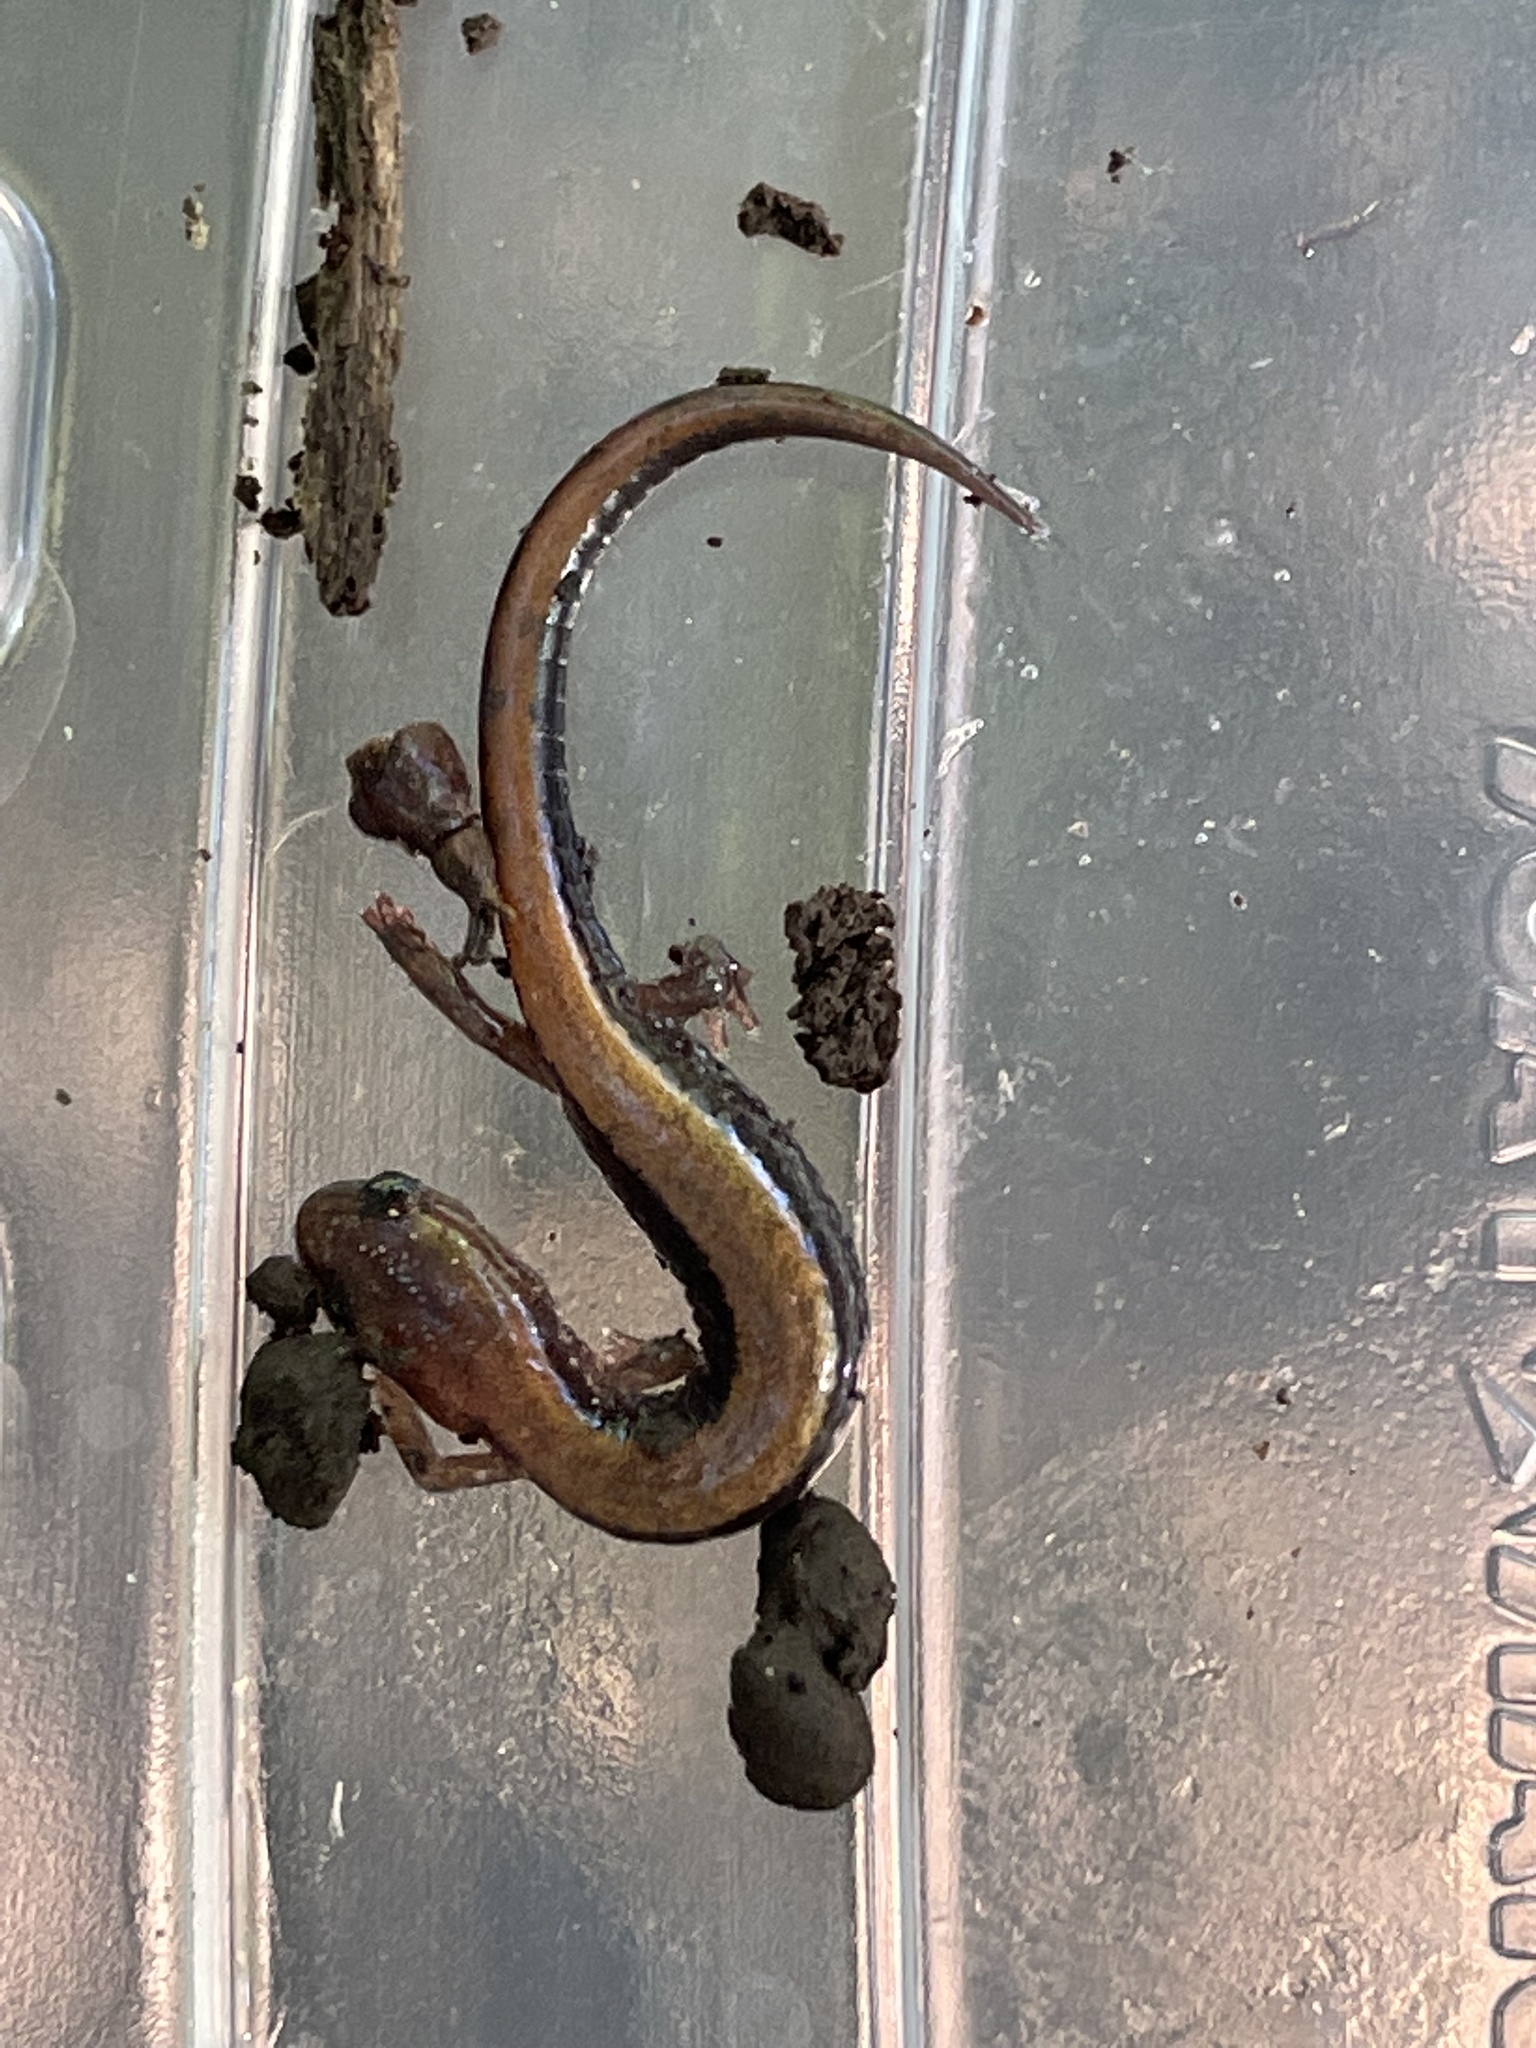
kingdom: Animalia
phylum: Chordata
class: Amphibia
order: Caudata
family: Plethodontidae
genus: Plethodon
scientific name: Plethodon cinereus
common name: Redback salamander
